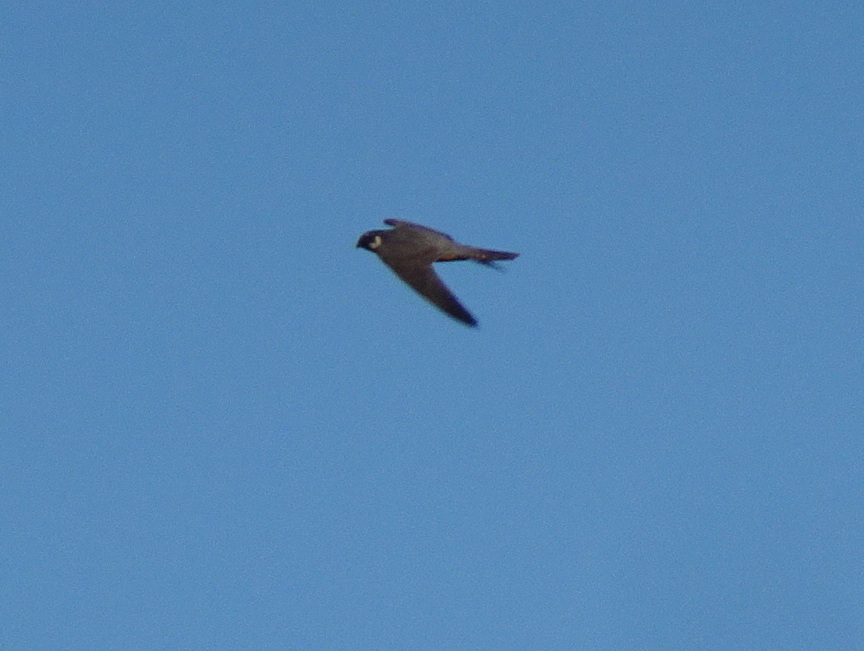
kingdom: Animalia
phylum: Chordata
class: Aves
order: Falconiformes
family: Falconidae
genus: Falco
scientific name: Falco subbuteo
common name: Eurasian hobby
